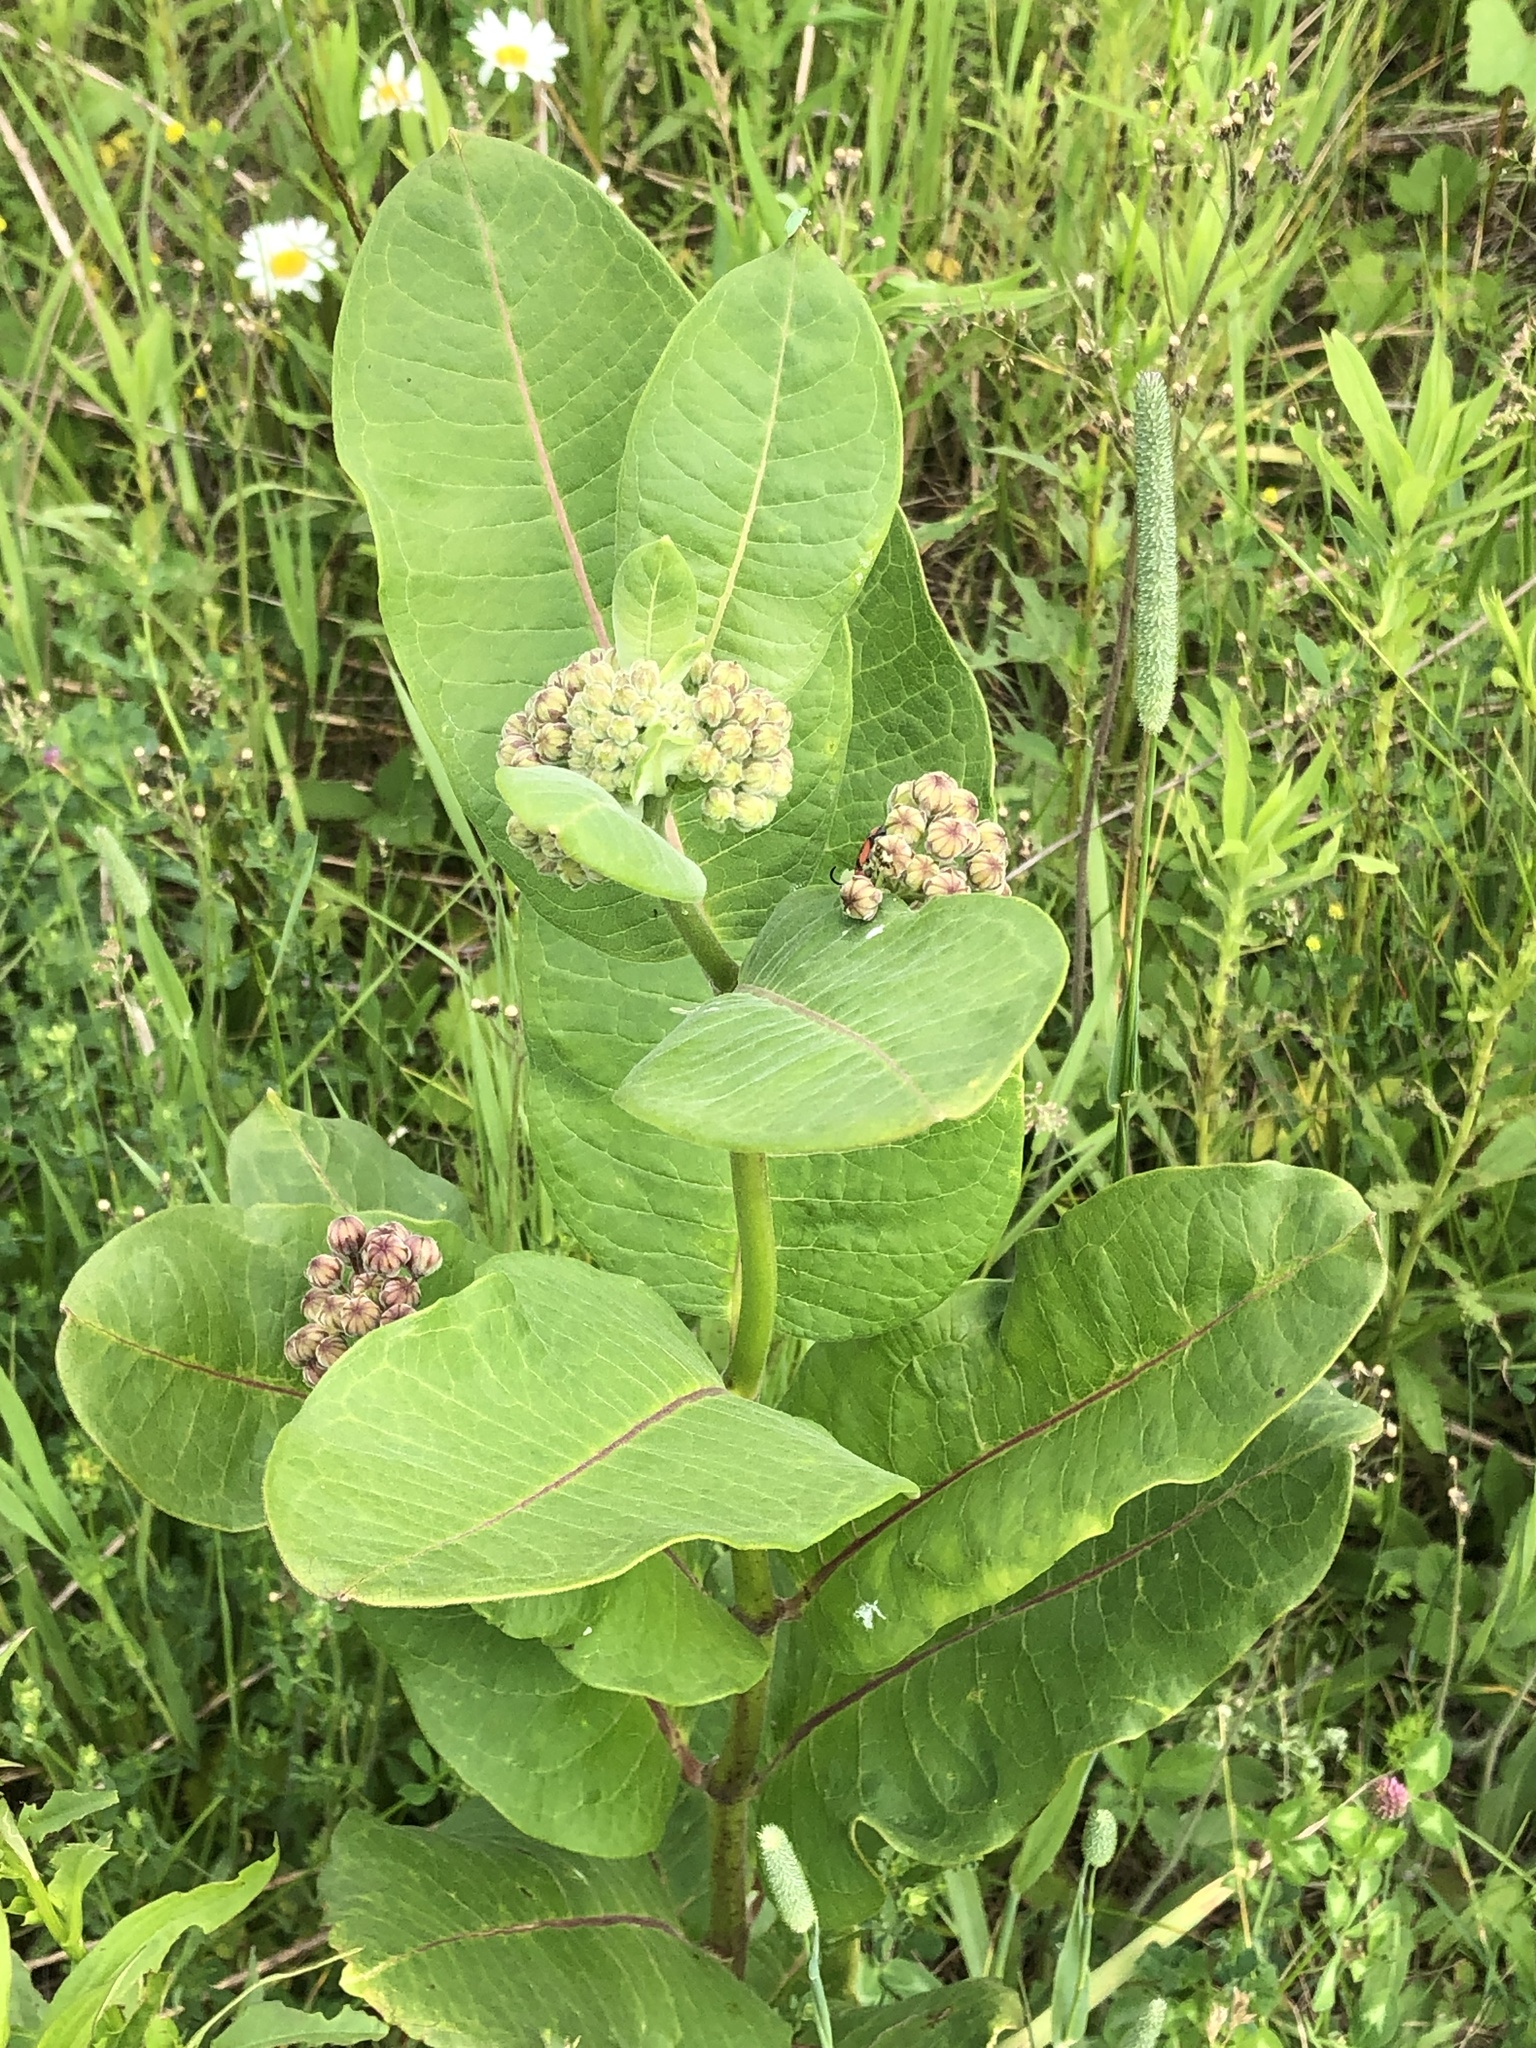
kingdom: Plantae
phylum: Tracheophyta
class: Magnoliopsida
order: Gentianales
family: Apocynaceae
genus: Asclepias
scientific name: Asclepias syriaca
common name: Common milkweed
